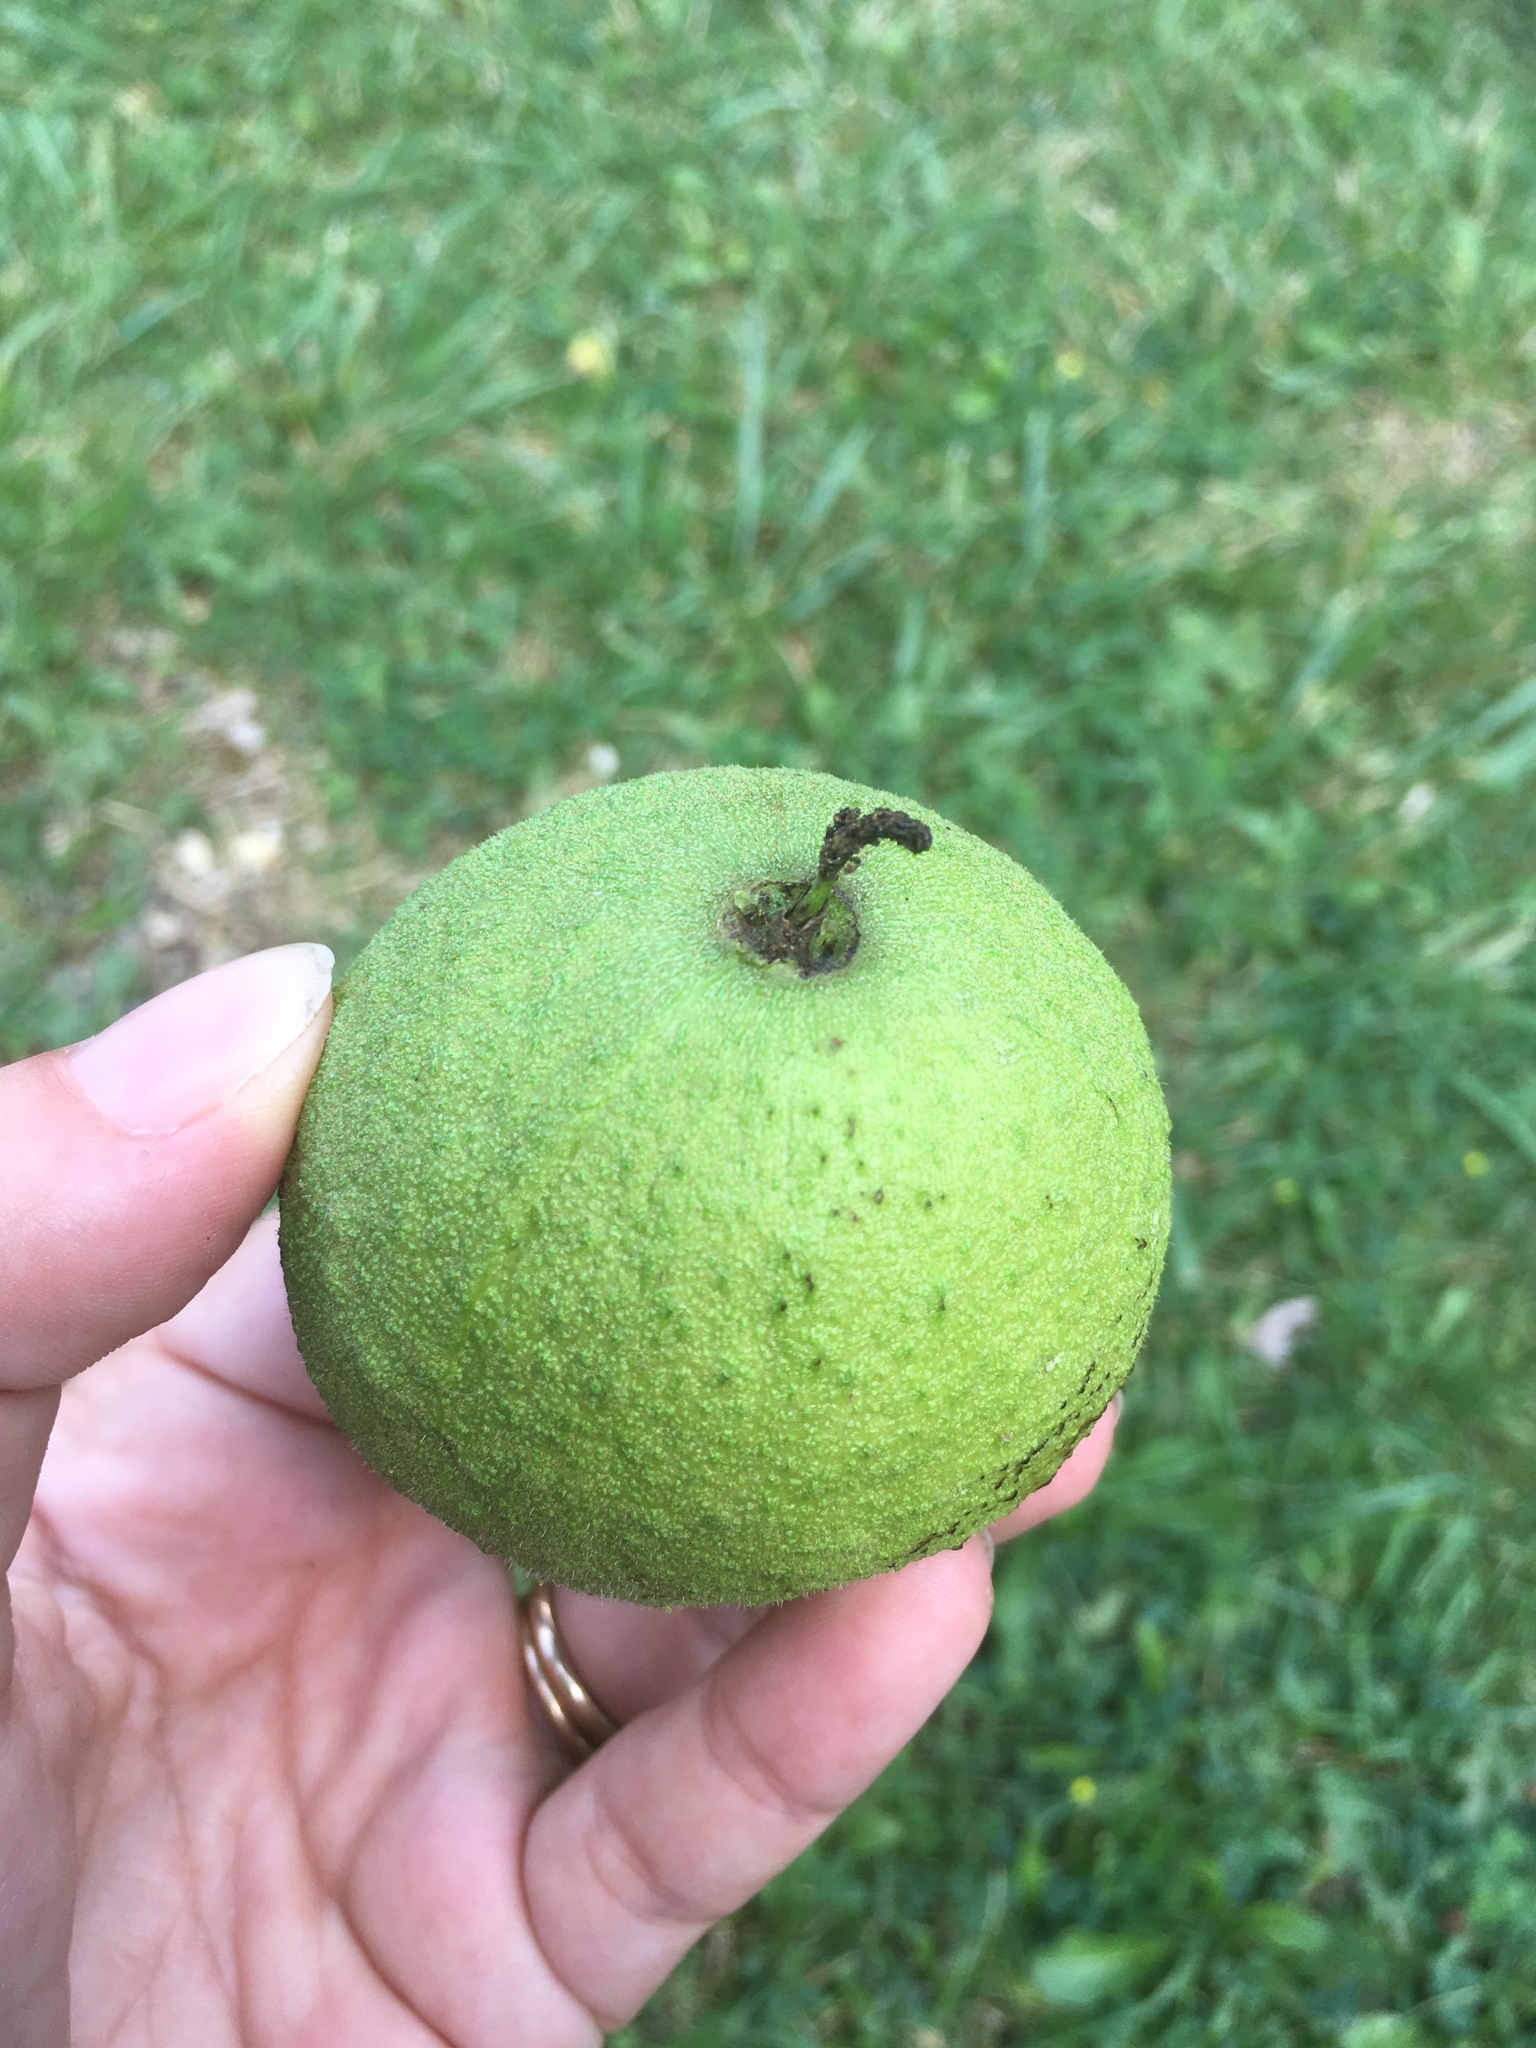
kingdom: Plantae
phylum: Tracheophyta
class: Magnoliopsida
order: Fagales
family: Juglandaceae
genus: Juglans
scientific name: Juglans nigra
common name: Black walnut
